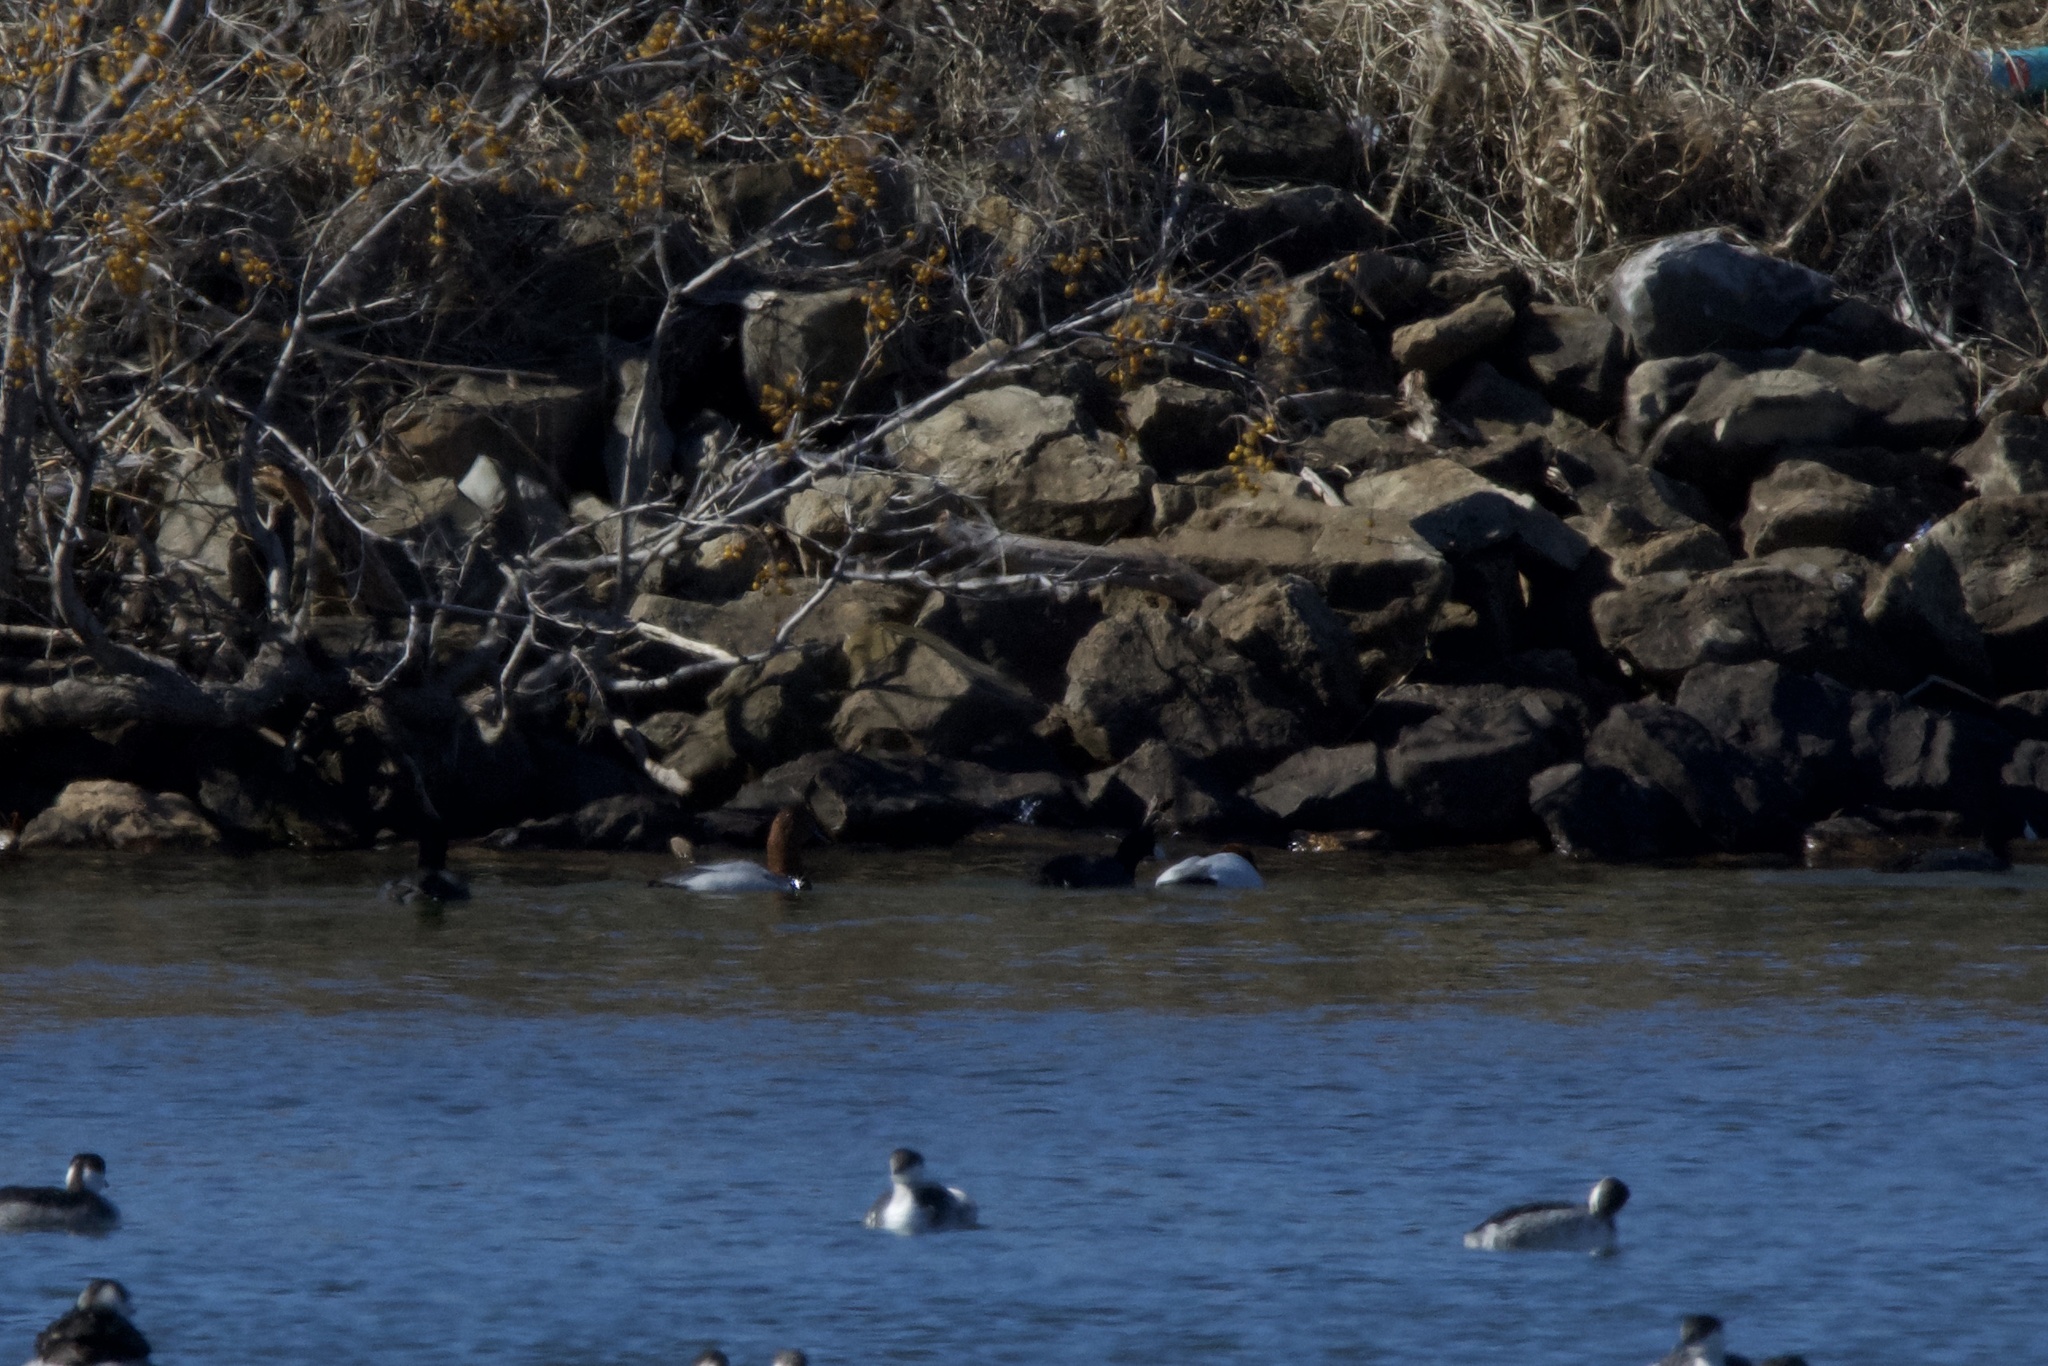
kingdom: Animalia
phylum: Chordata
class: Aves
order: Anseriformes
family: Anatidae
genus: Aythya
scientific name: Aythya valisineria
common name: Canvasback
